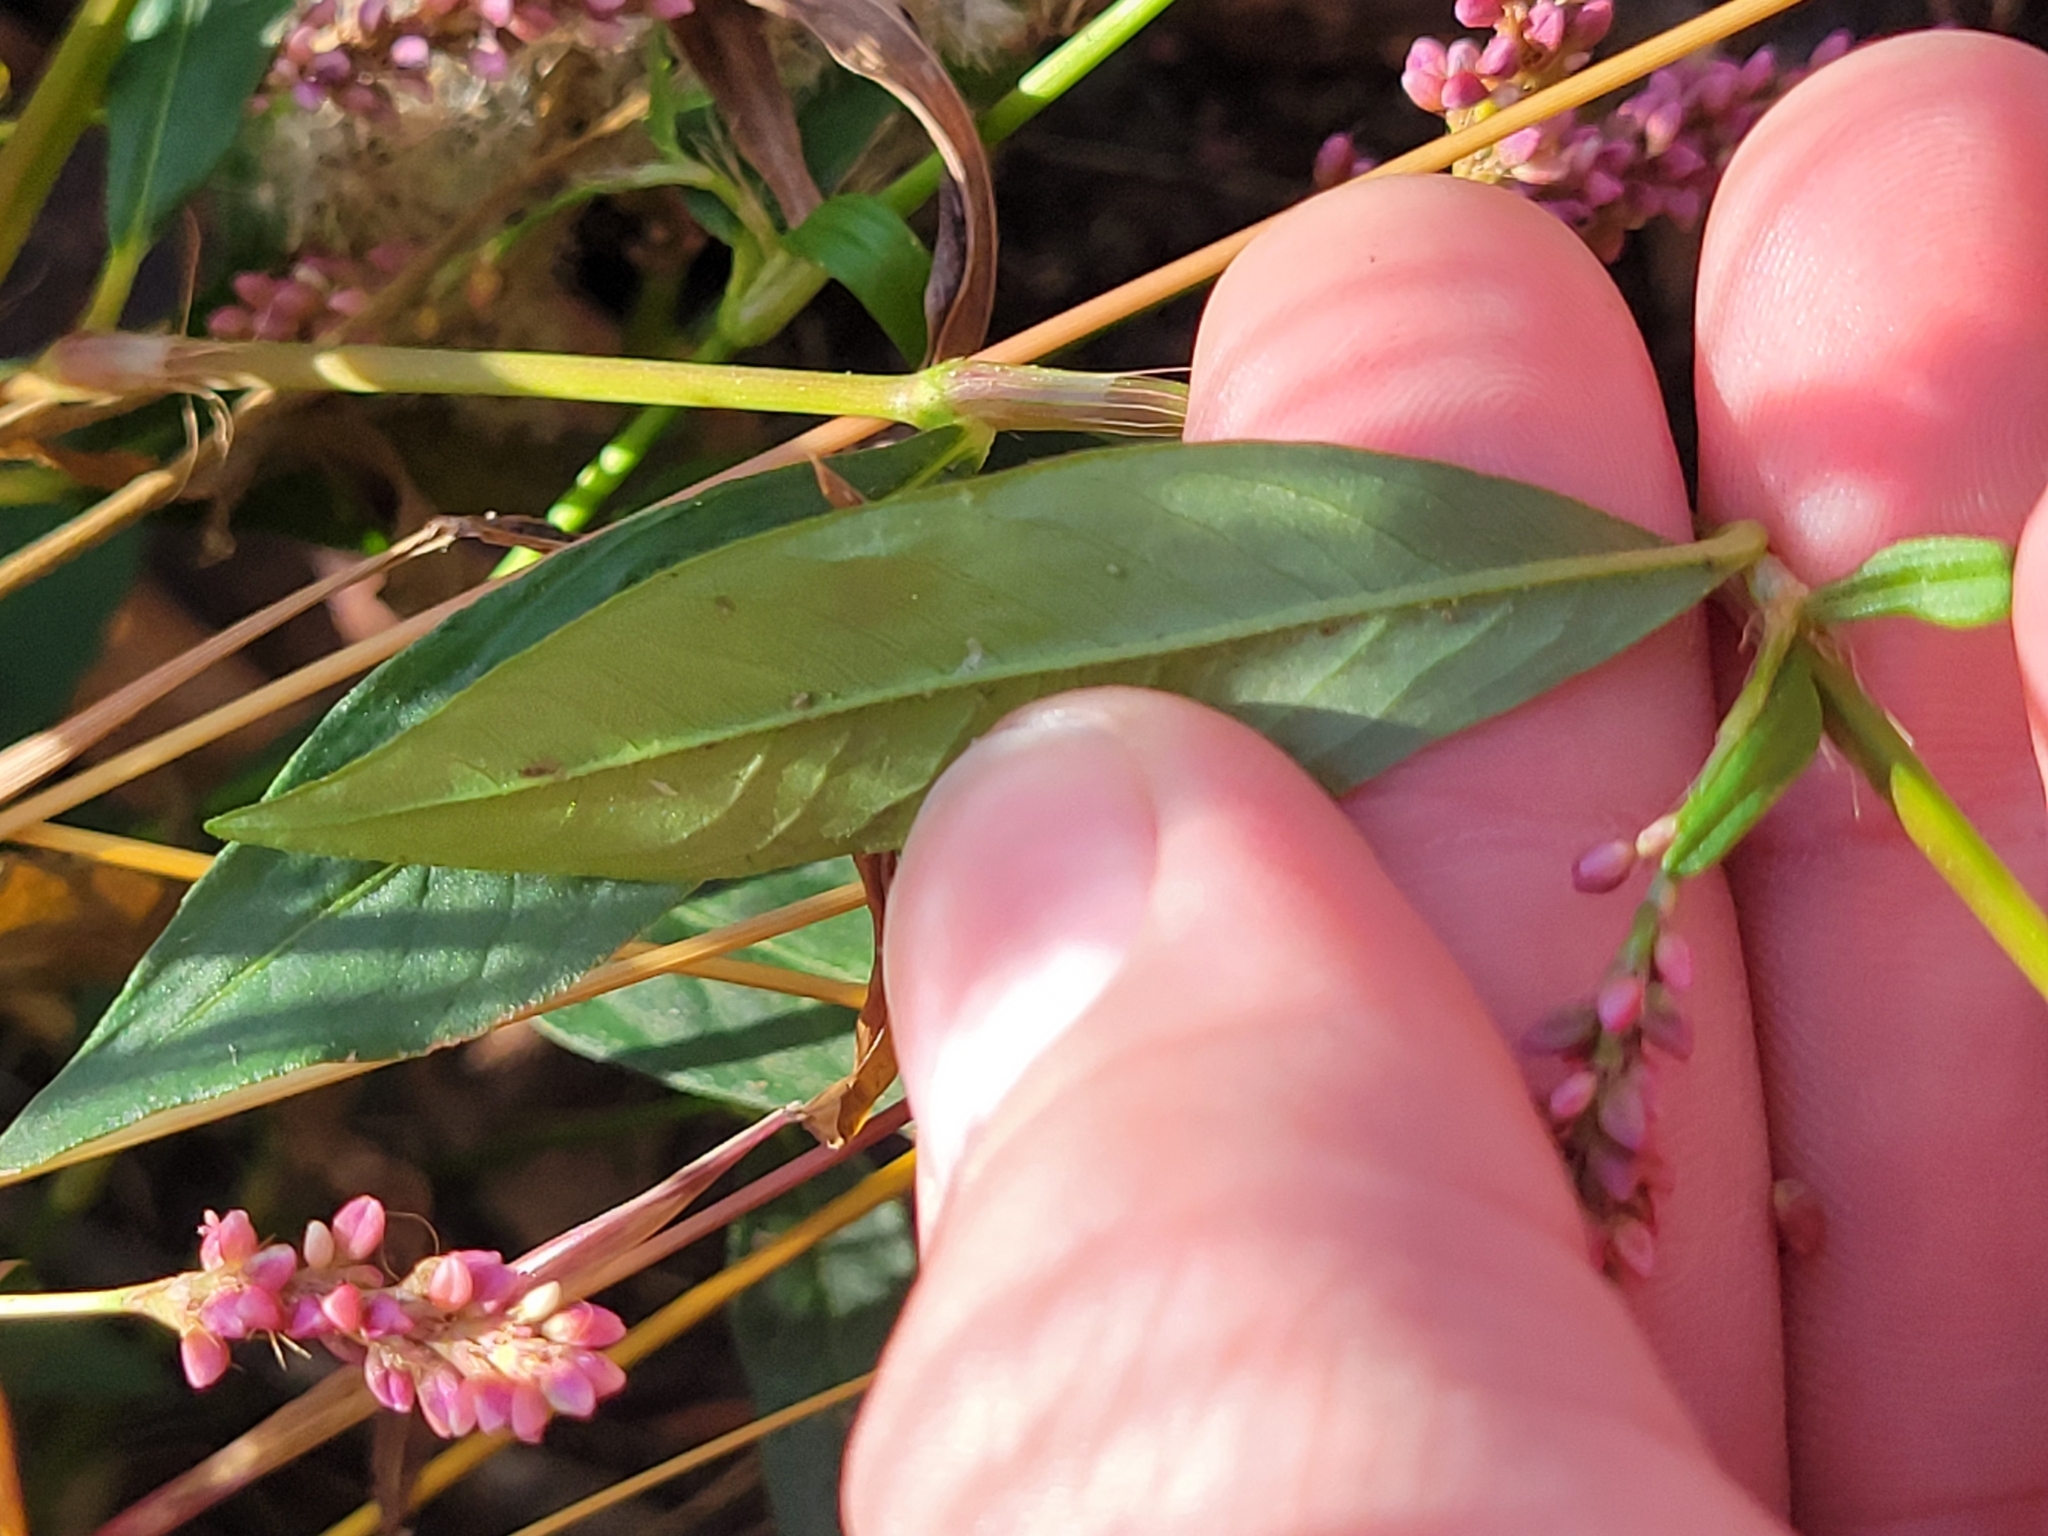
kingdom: Plantae
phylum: Tracheophyta
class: Magnoliopsida
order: Caryophyllales
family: Polygonaceae
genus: Persicaria
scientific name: Persicaria longiseta
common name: Bristly lady's-thumb
